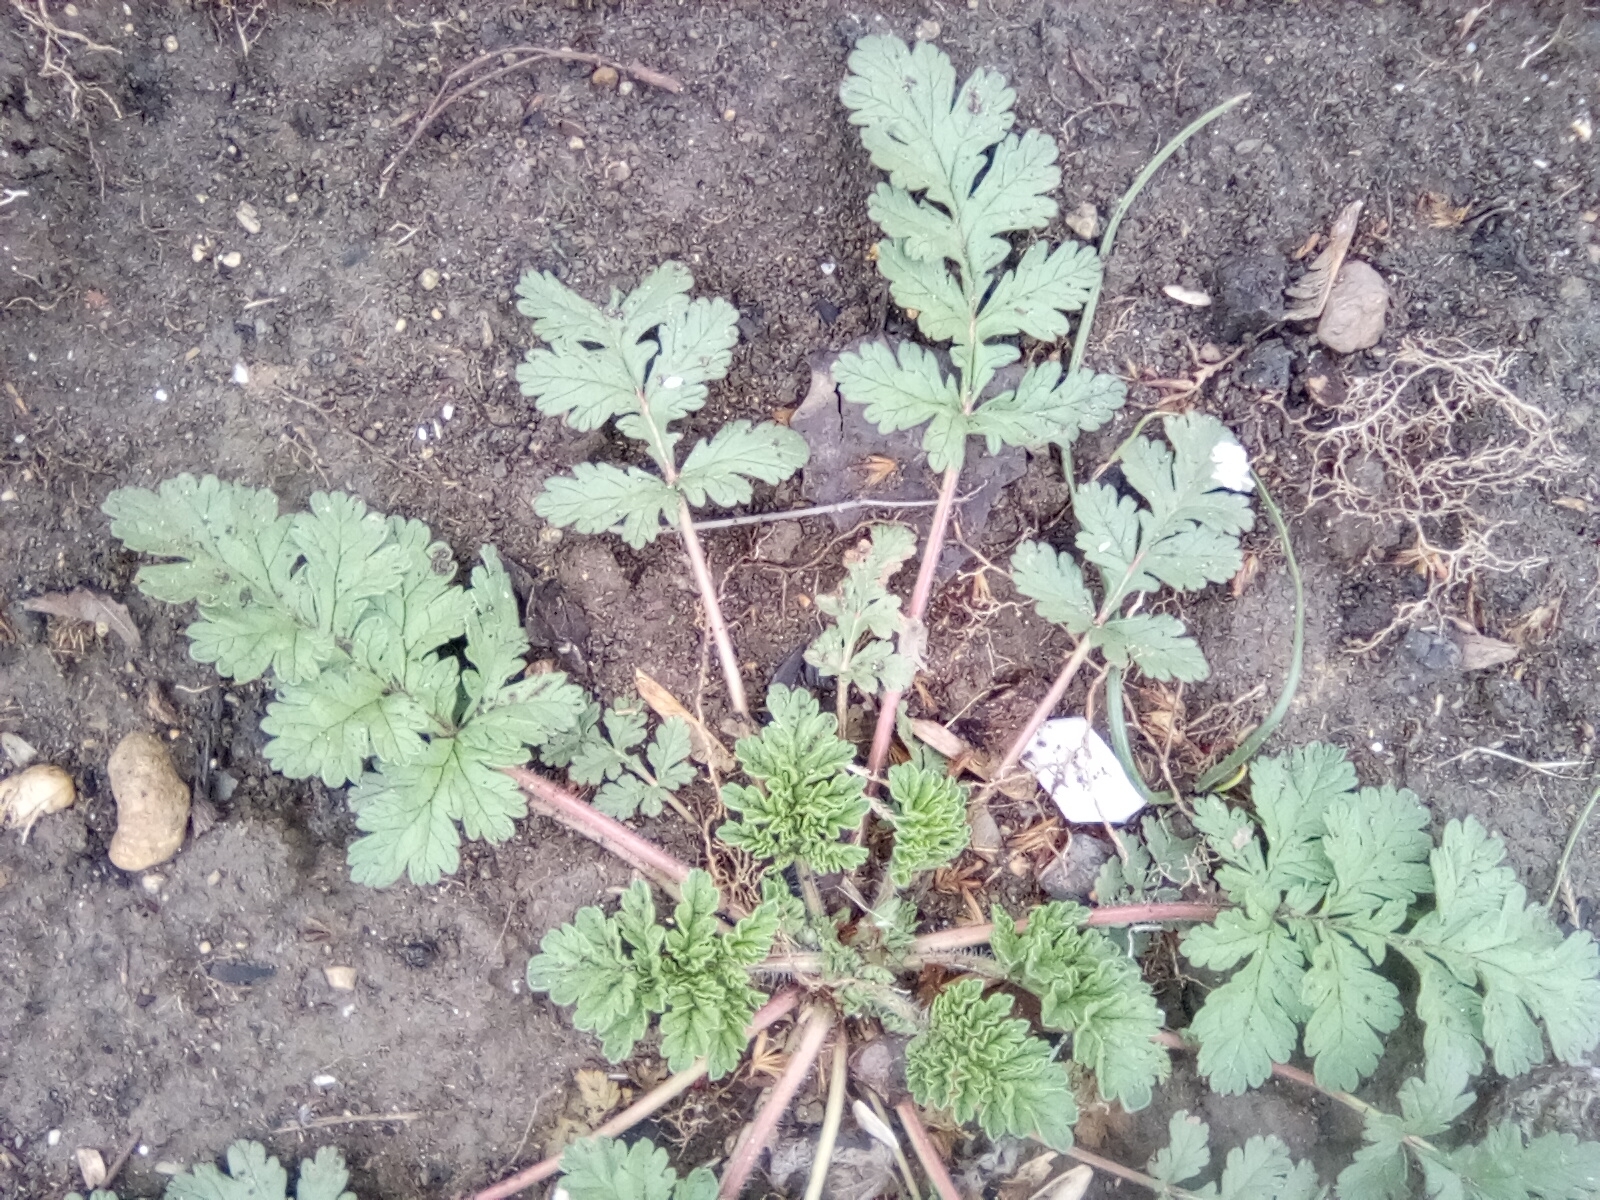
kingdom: Plantae
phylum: Tracheophyta
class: Magnoliopsida
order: Geraniales
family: Geraniaceae
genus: Erodium
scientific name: Erodium ciconium
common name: Common stork's bill
